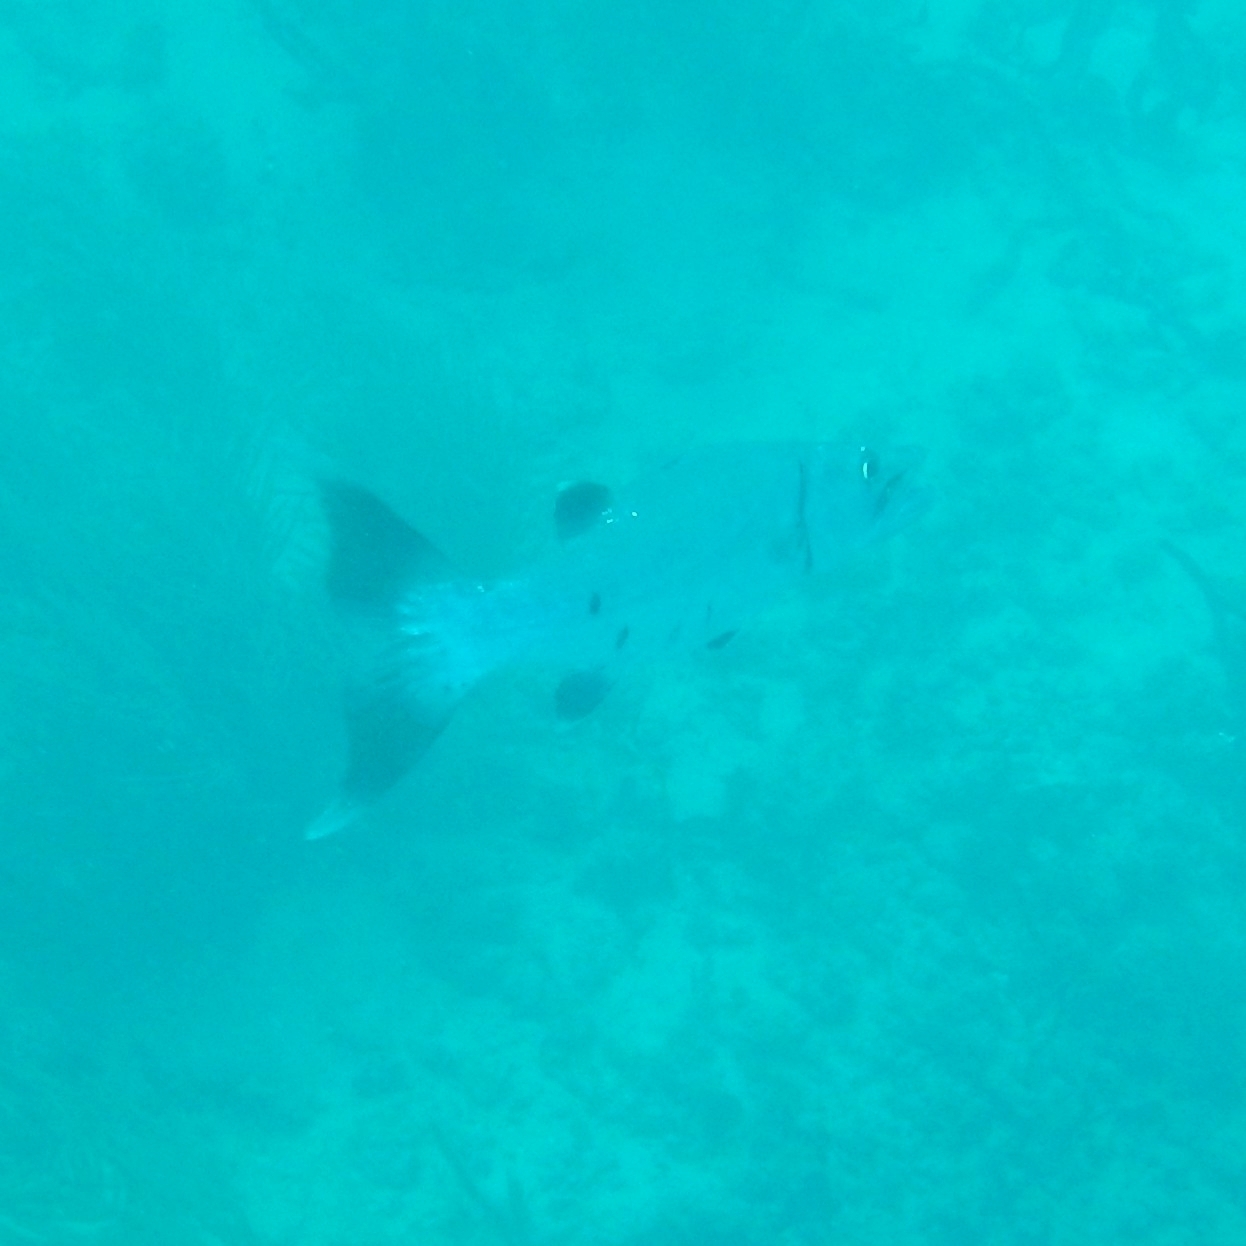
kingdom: Animalia
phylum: Chordata
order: Perciformes
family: Sphyraenidae
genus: Sphyraena
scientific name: Sphyraena barracuda
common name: Great barracuda
